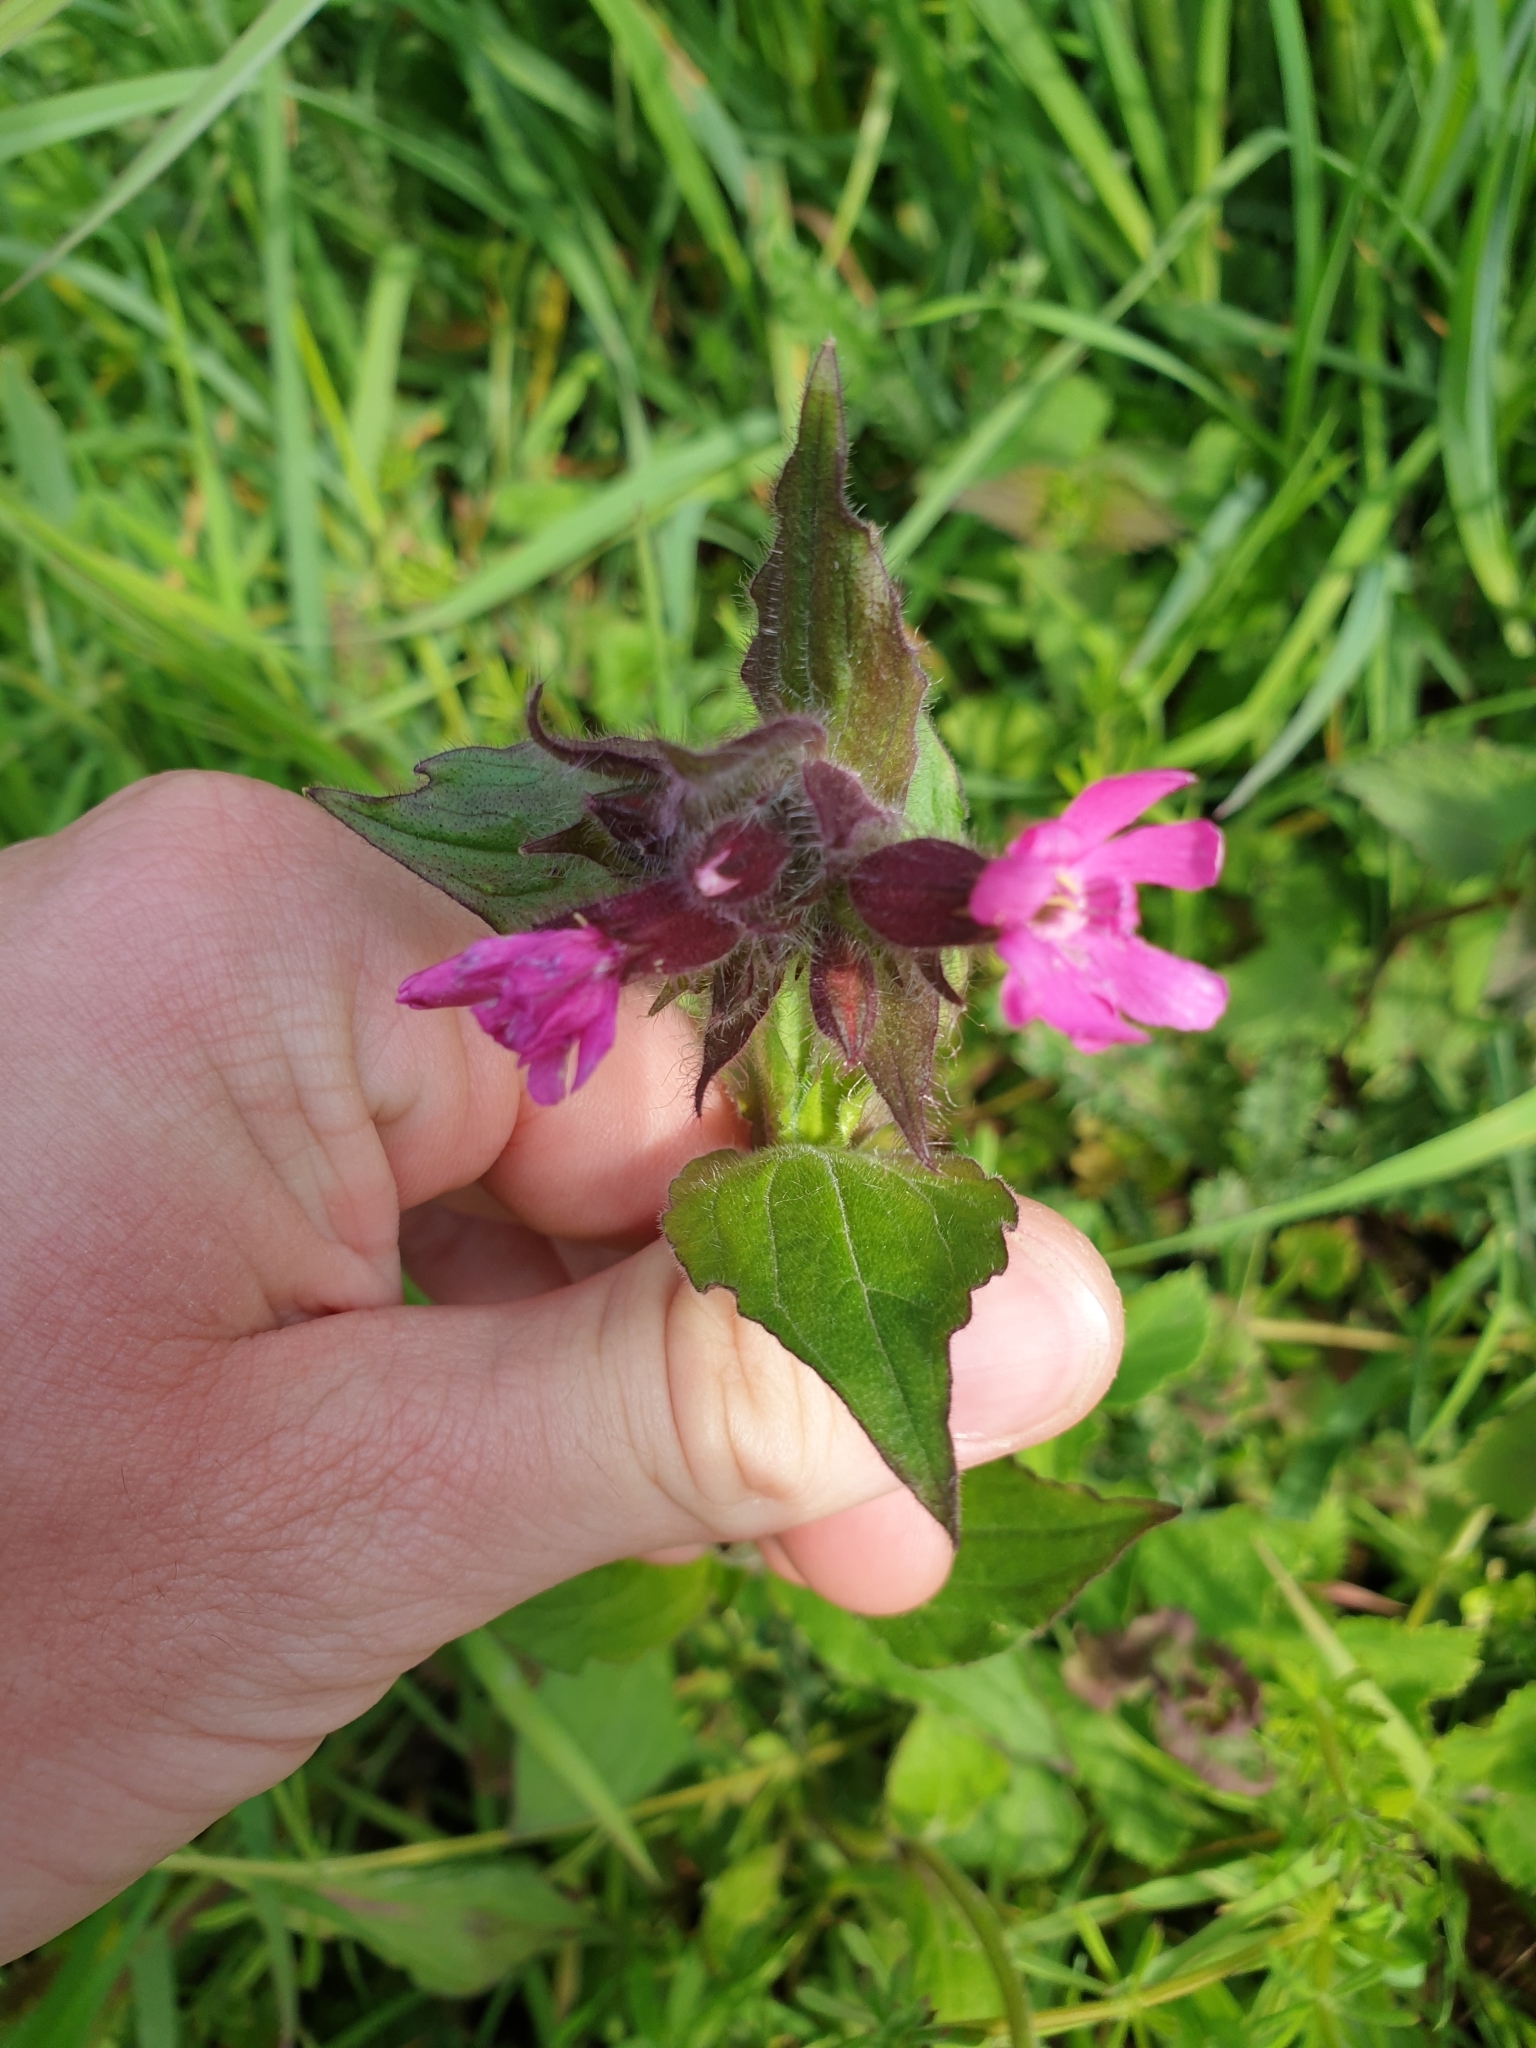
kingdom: Plantae
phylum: Tracheophyta
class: Magnoliopsida
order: Caryophyllales
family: Caryophyllaceae
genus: Silene
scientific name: Silene dioica
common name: Red campion
